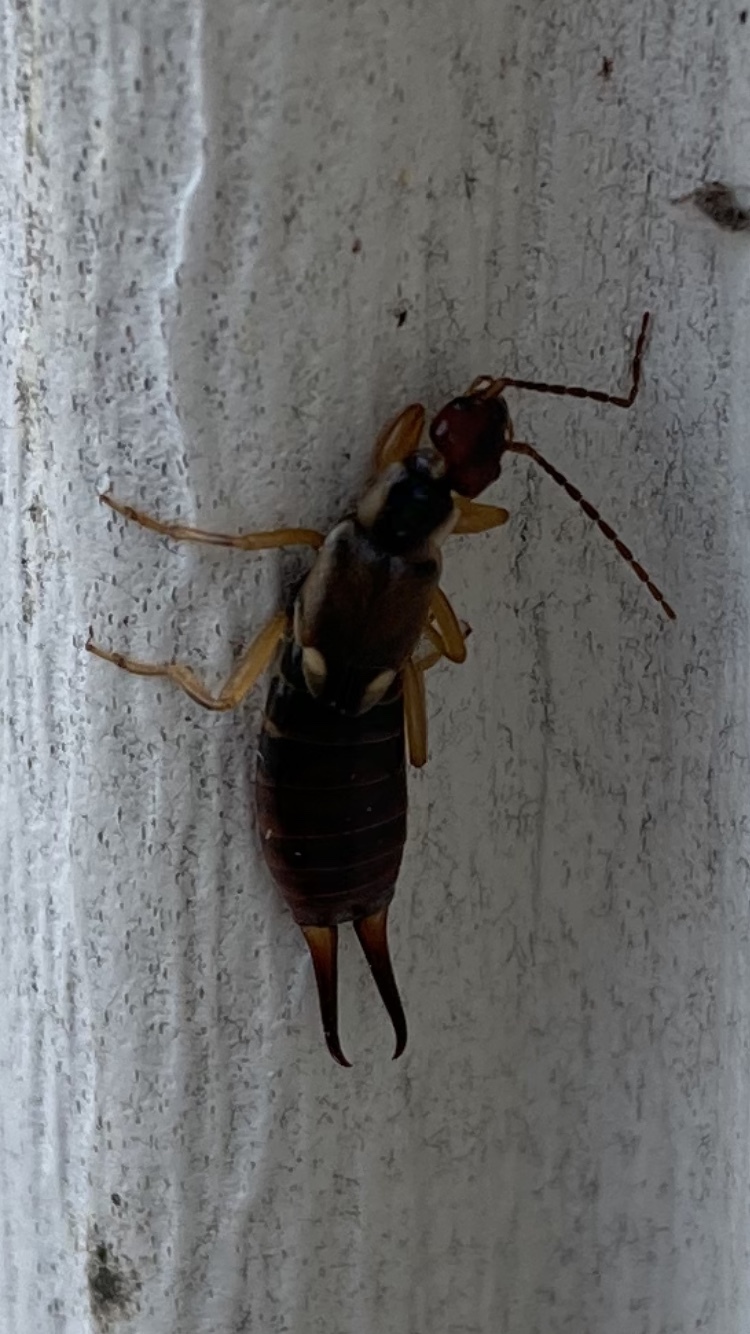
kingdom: Animalia
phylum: Arthropoda
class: Insecta
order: Dermaptera
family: Forficulidae
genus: Forficula
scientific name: Forficula
